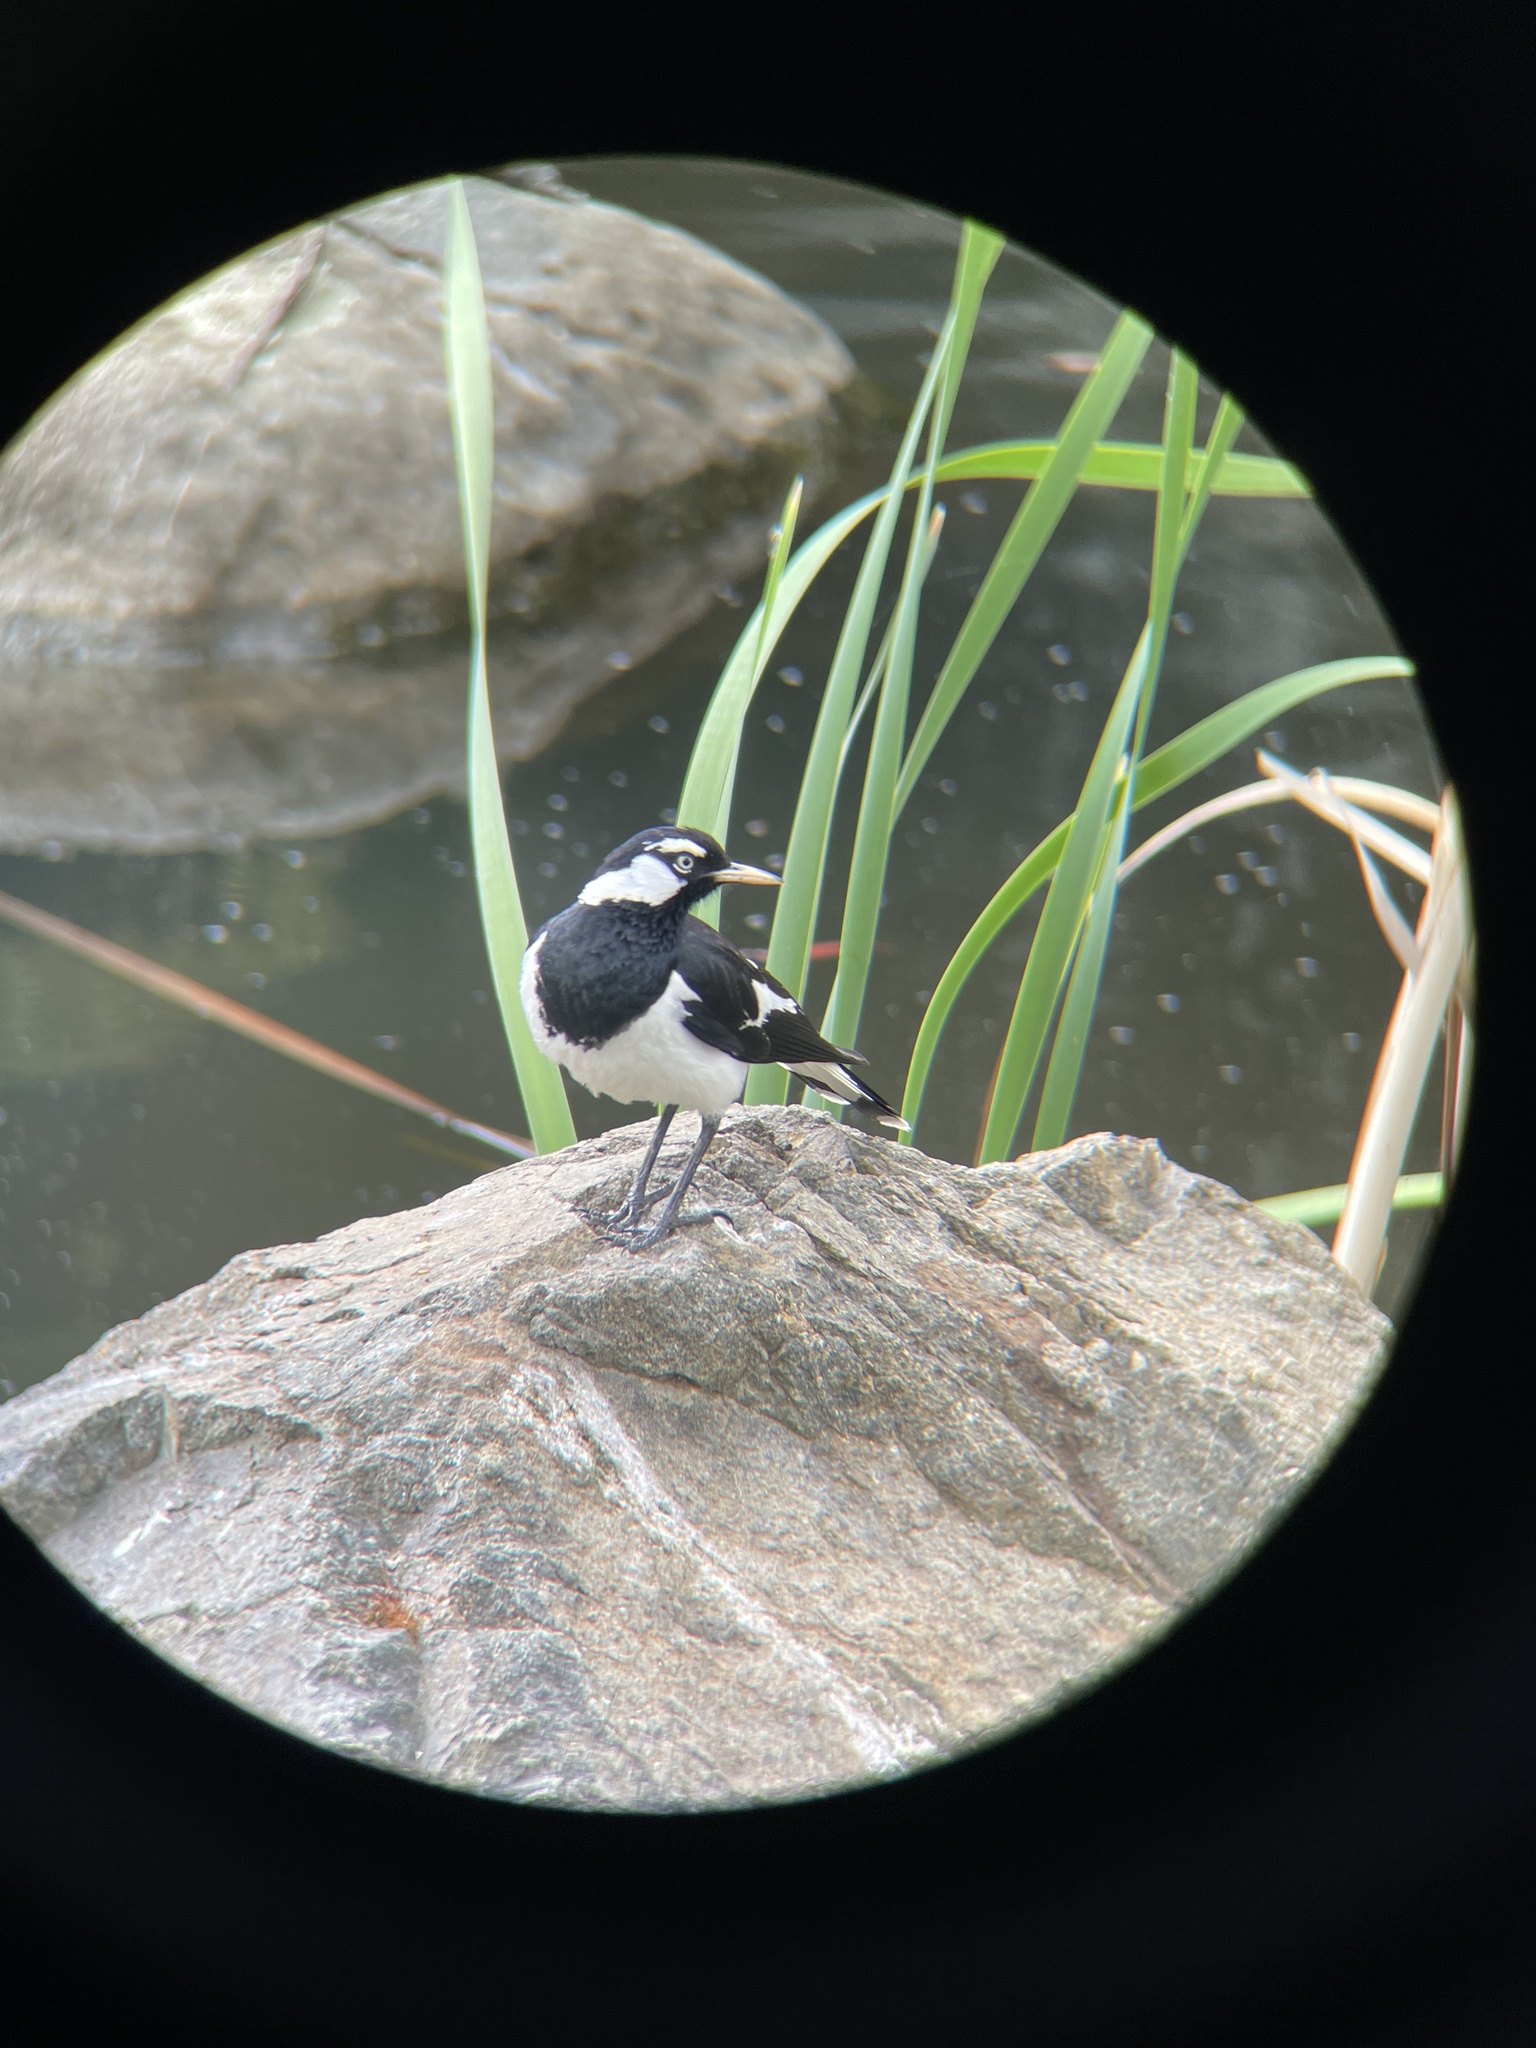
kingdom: Animalia
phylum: Chordata
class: Aves
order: Passeriformes
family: Monarchidae
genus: Grallina
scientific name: Grallina cyanoleuca
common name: Magpie-lark
